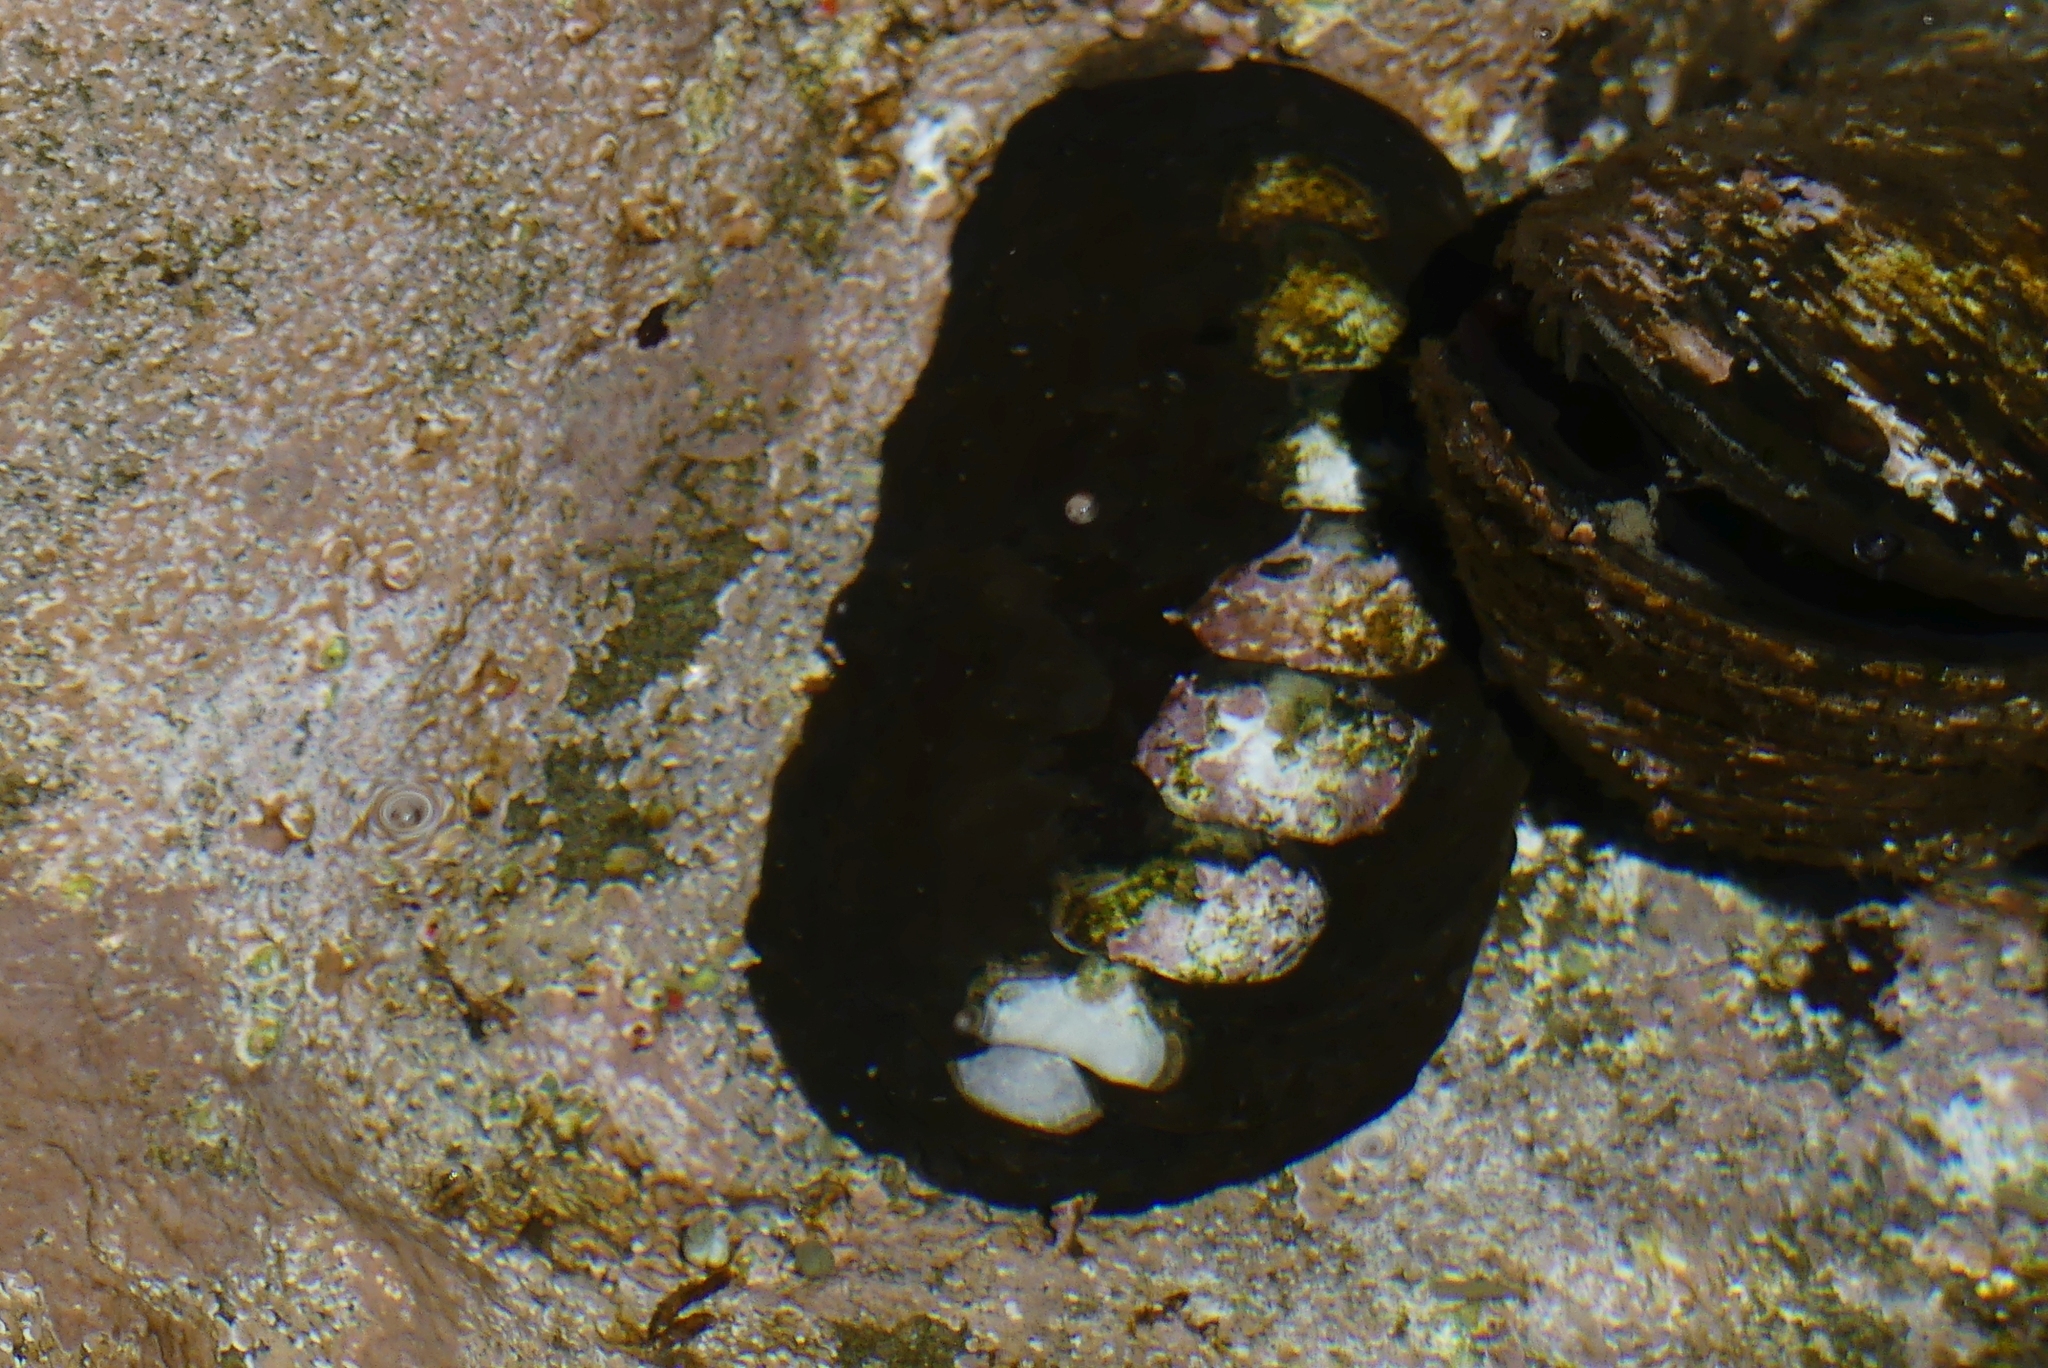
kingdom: Animalia
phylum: Mollusca
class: Polyplacophora
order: Chitonida
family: Mopaliidae
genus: Katharina
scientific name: Katharina tunicata
